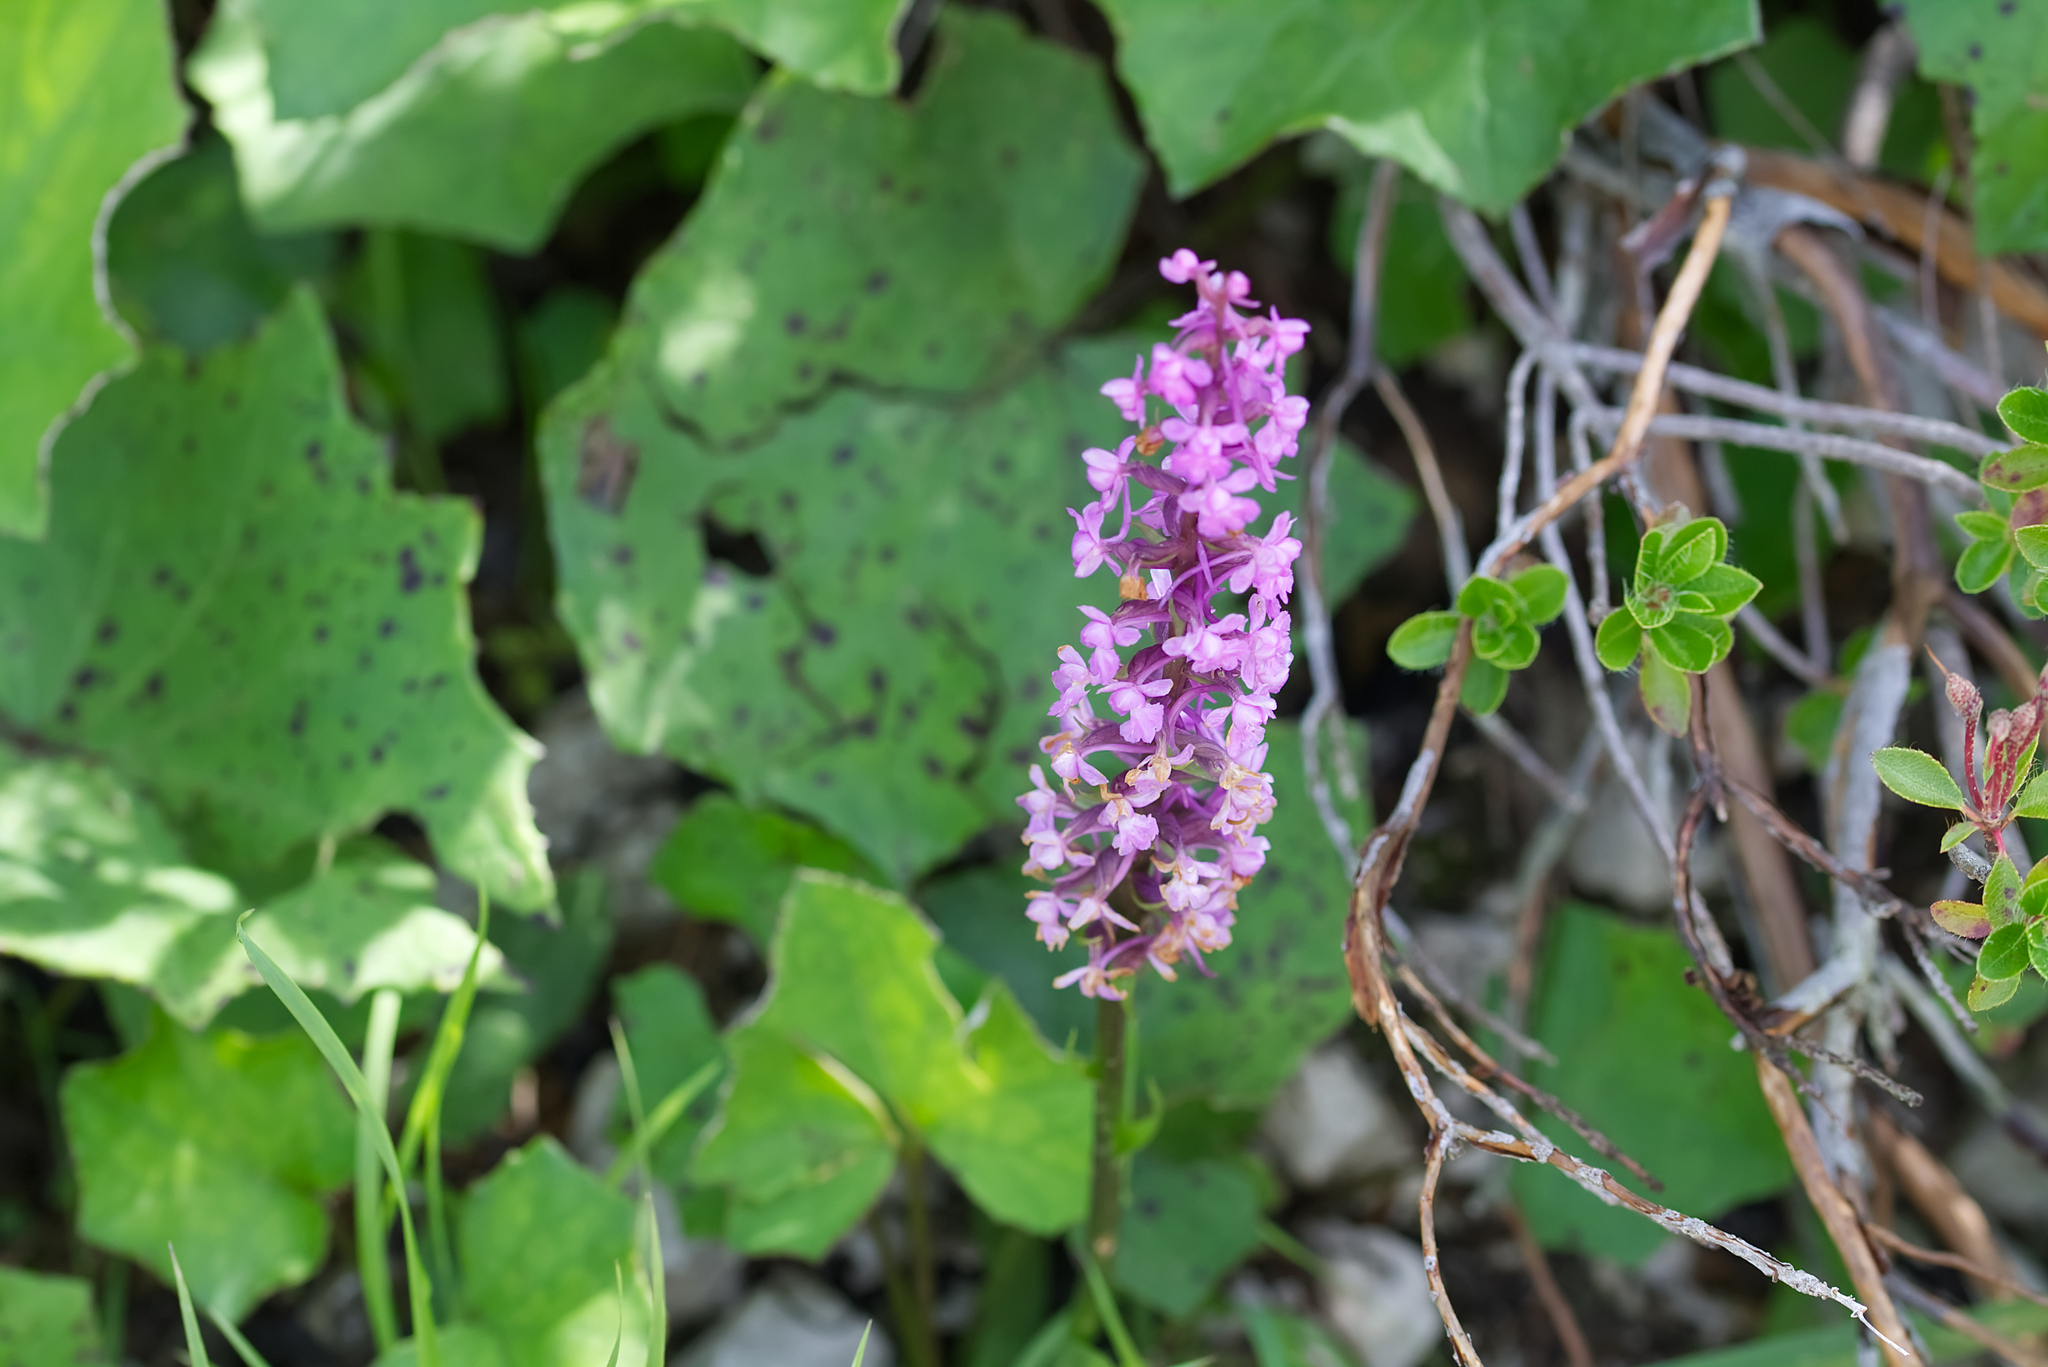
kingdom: Plantae
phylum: Tracheophyta
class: Liliopsida
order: Asparagales
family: Orchidaceae
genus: Gymnadenia
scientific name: Gymnadenia conopsea
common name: Fragrant orchid
